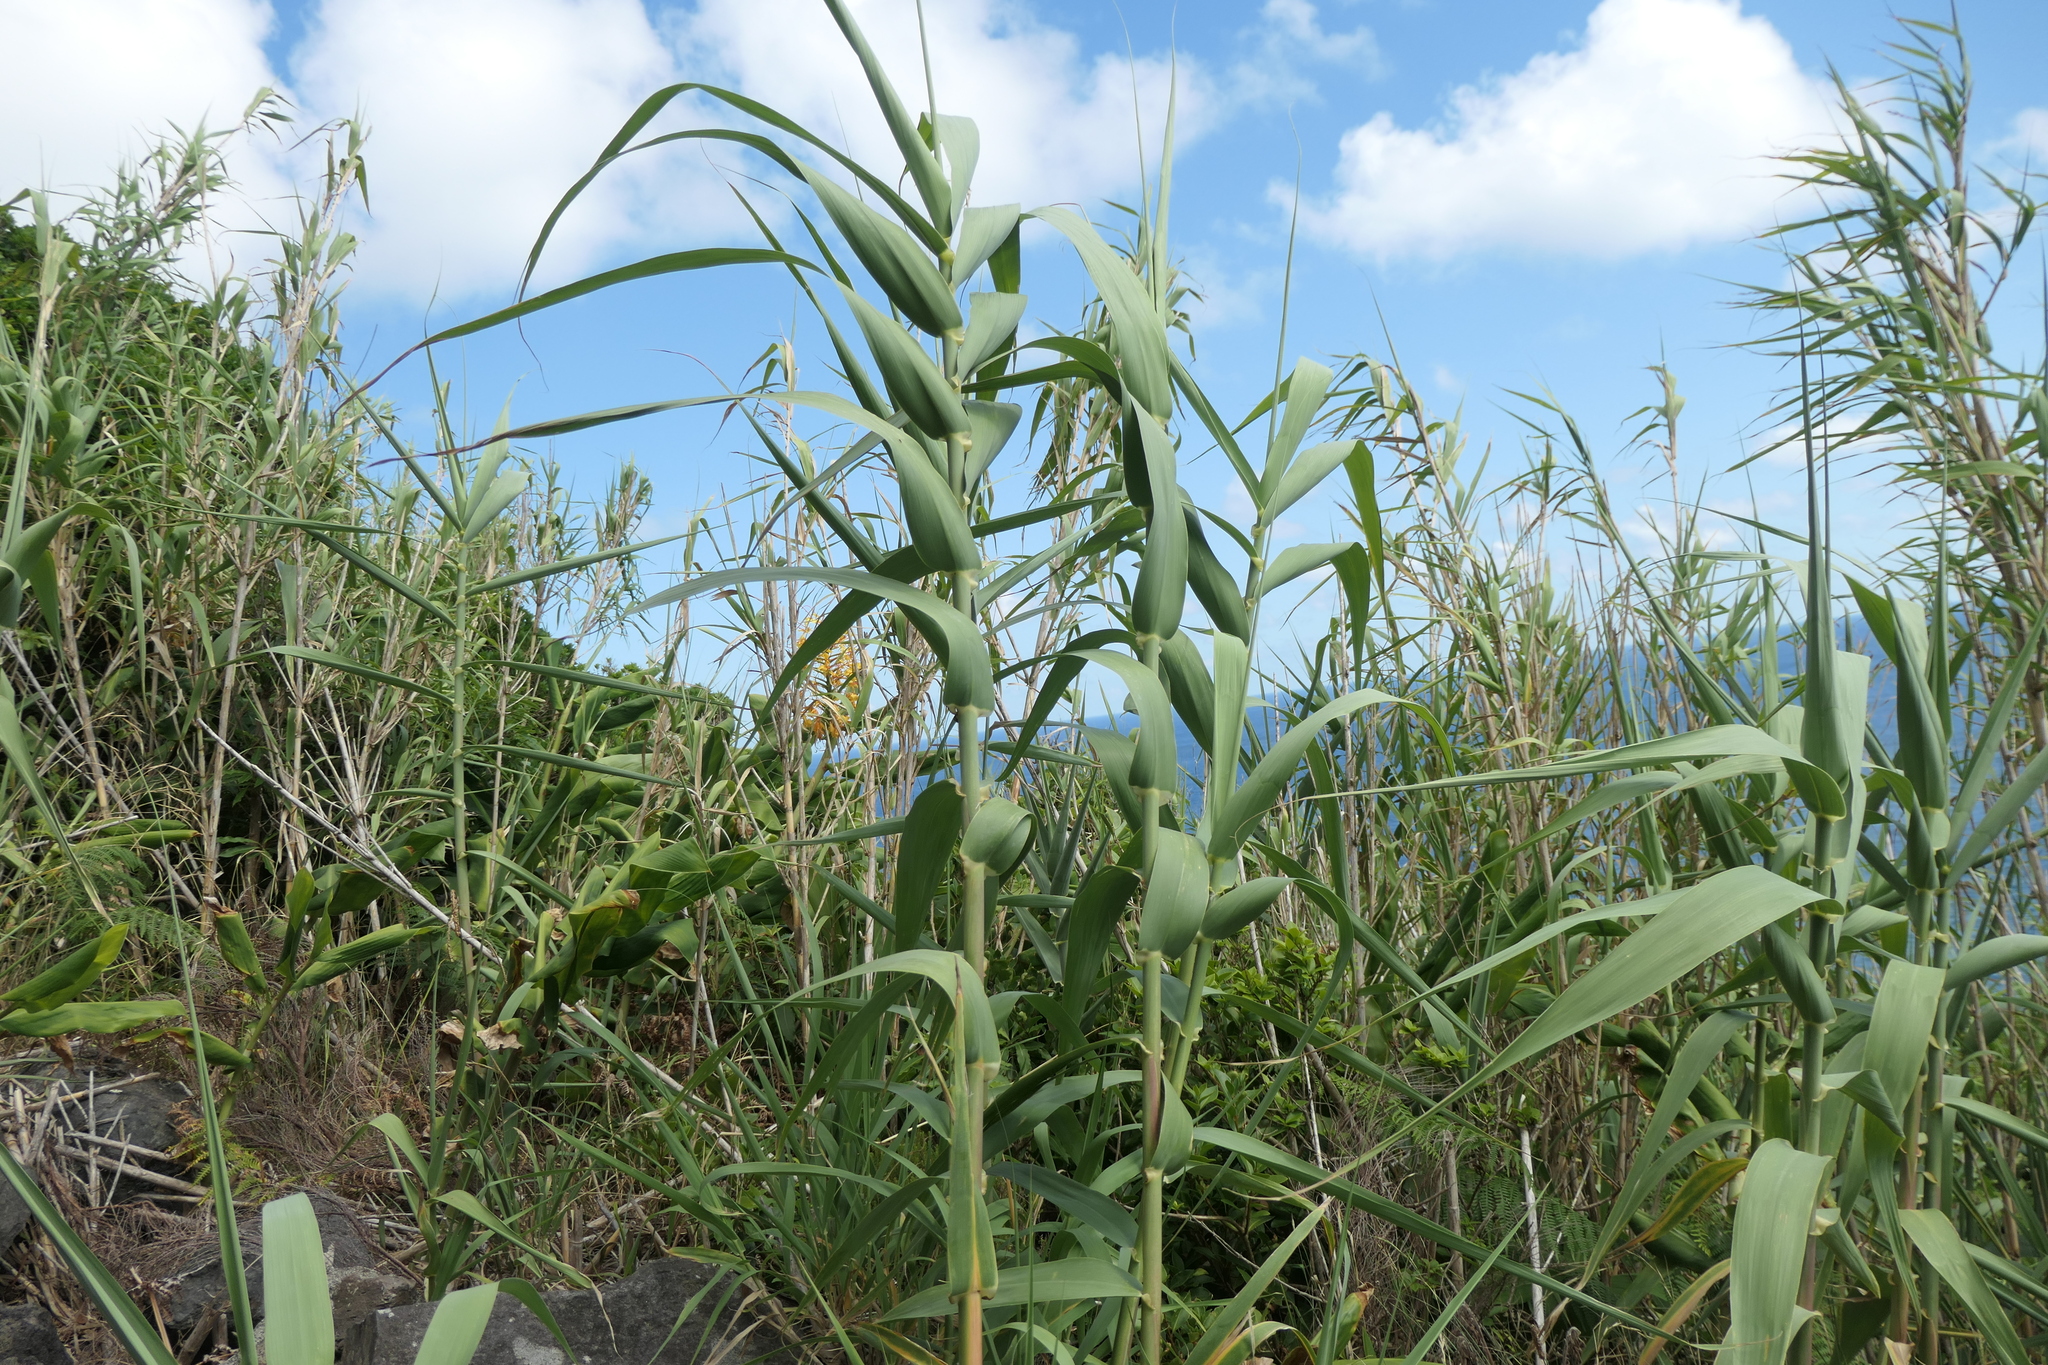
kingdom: Plantae
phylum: Tracheophyta
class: Liliopsida
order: Poales
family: Poaceae
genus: Arundo
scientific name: Arundo donax
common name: Giant reed
